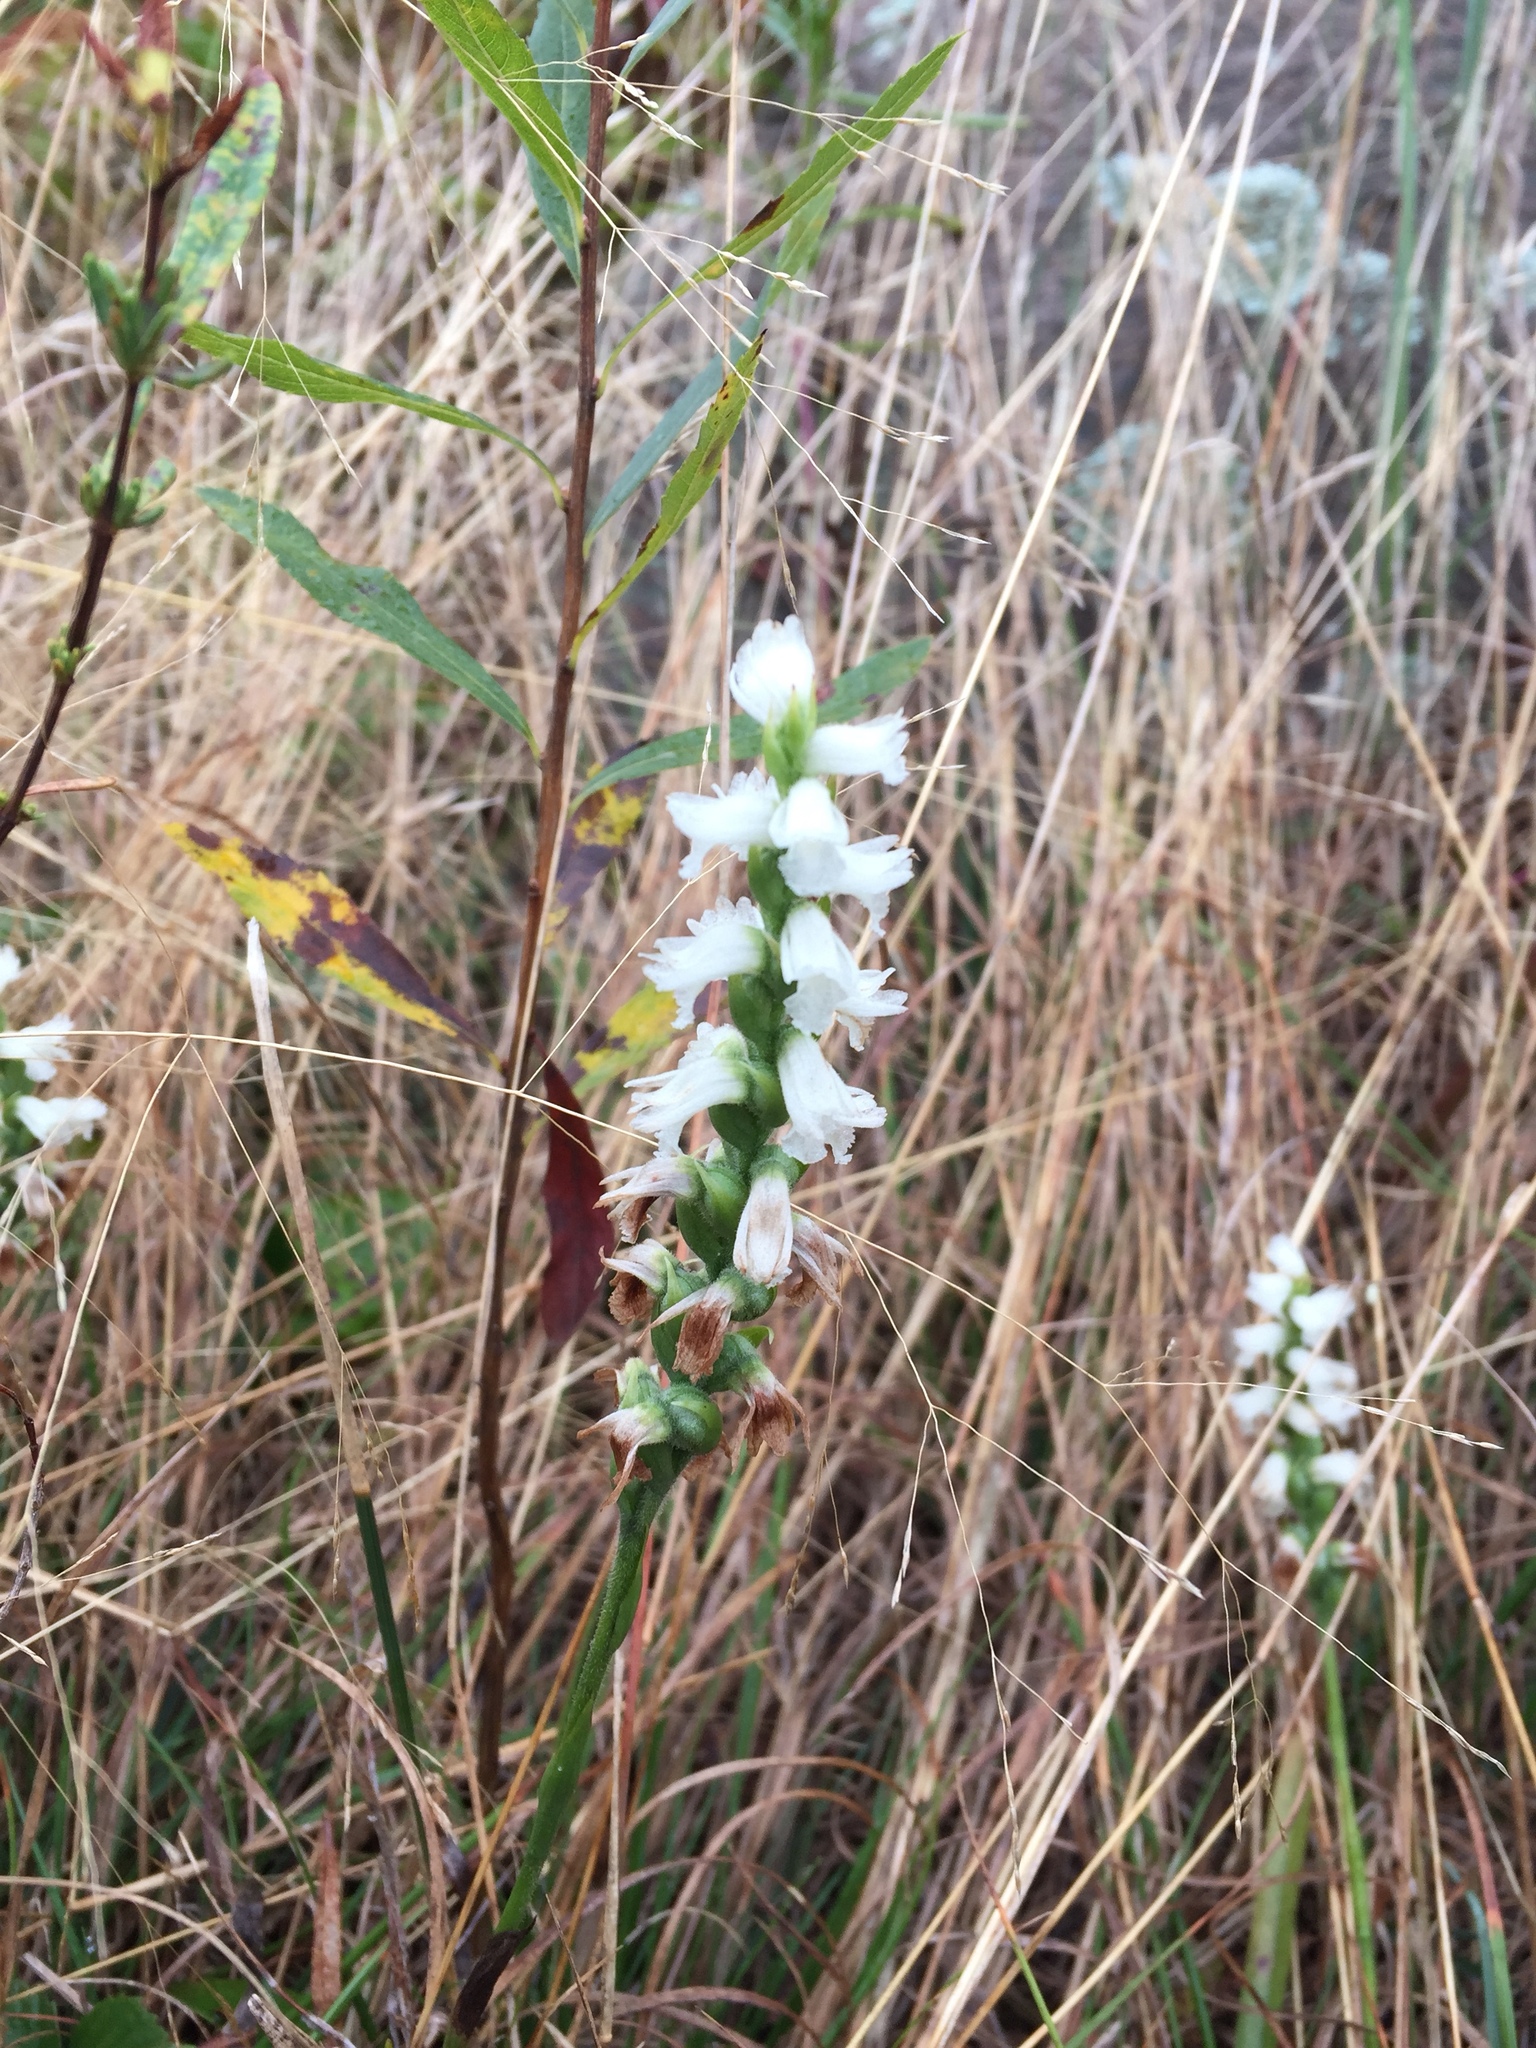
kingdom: Plantae
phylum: Tracheophyta
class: Liliopsida
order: Asparagales
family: Orchidaceae
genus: Spiranthes
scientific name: Spiranthes incurva
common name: Sphinx ladies'-tresses
